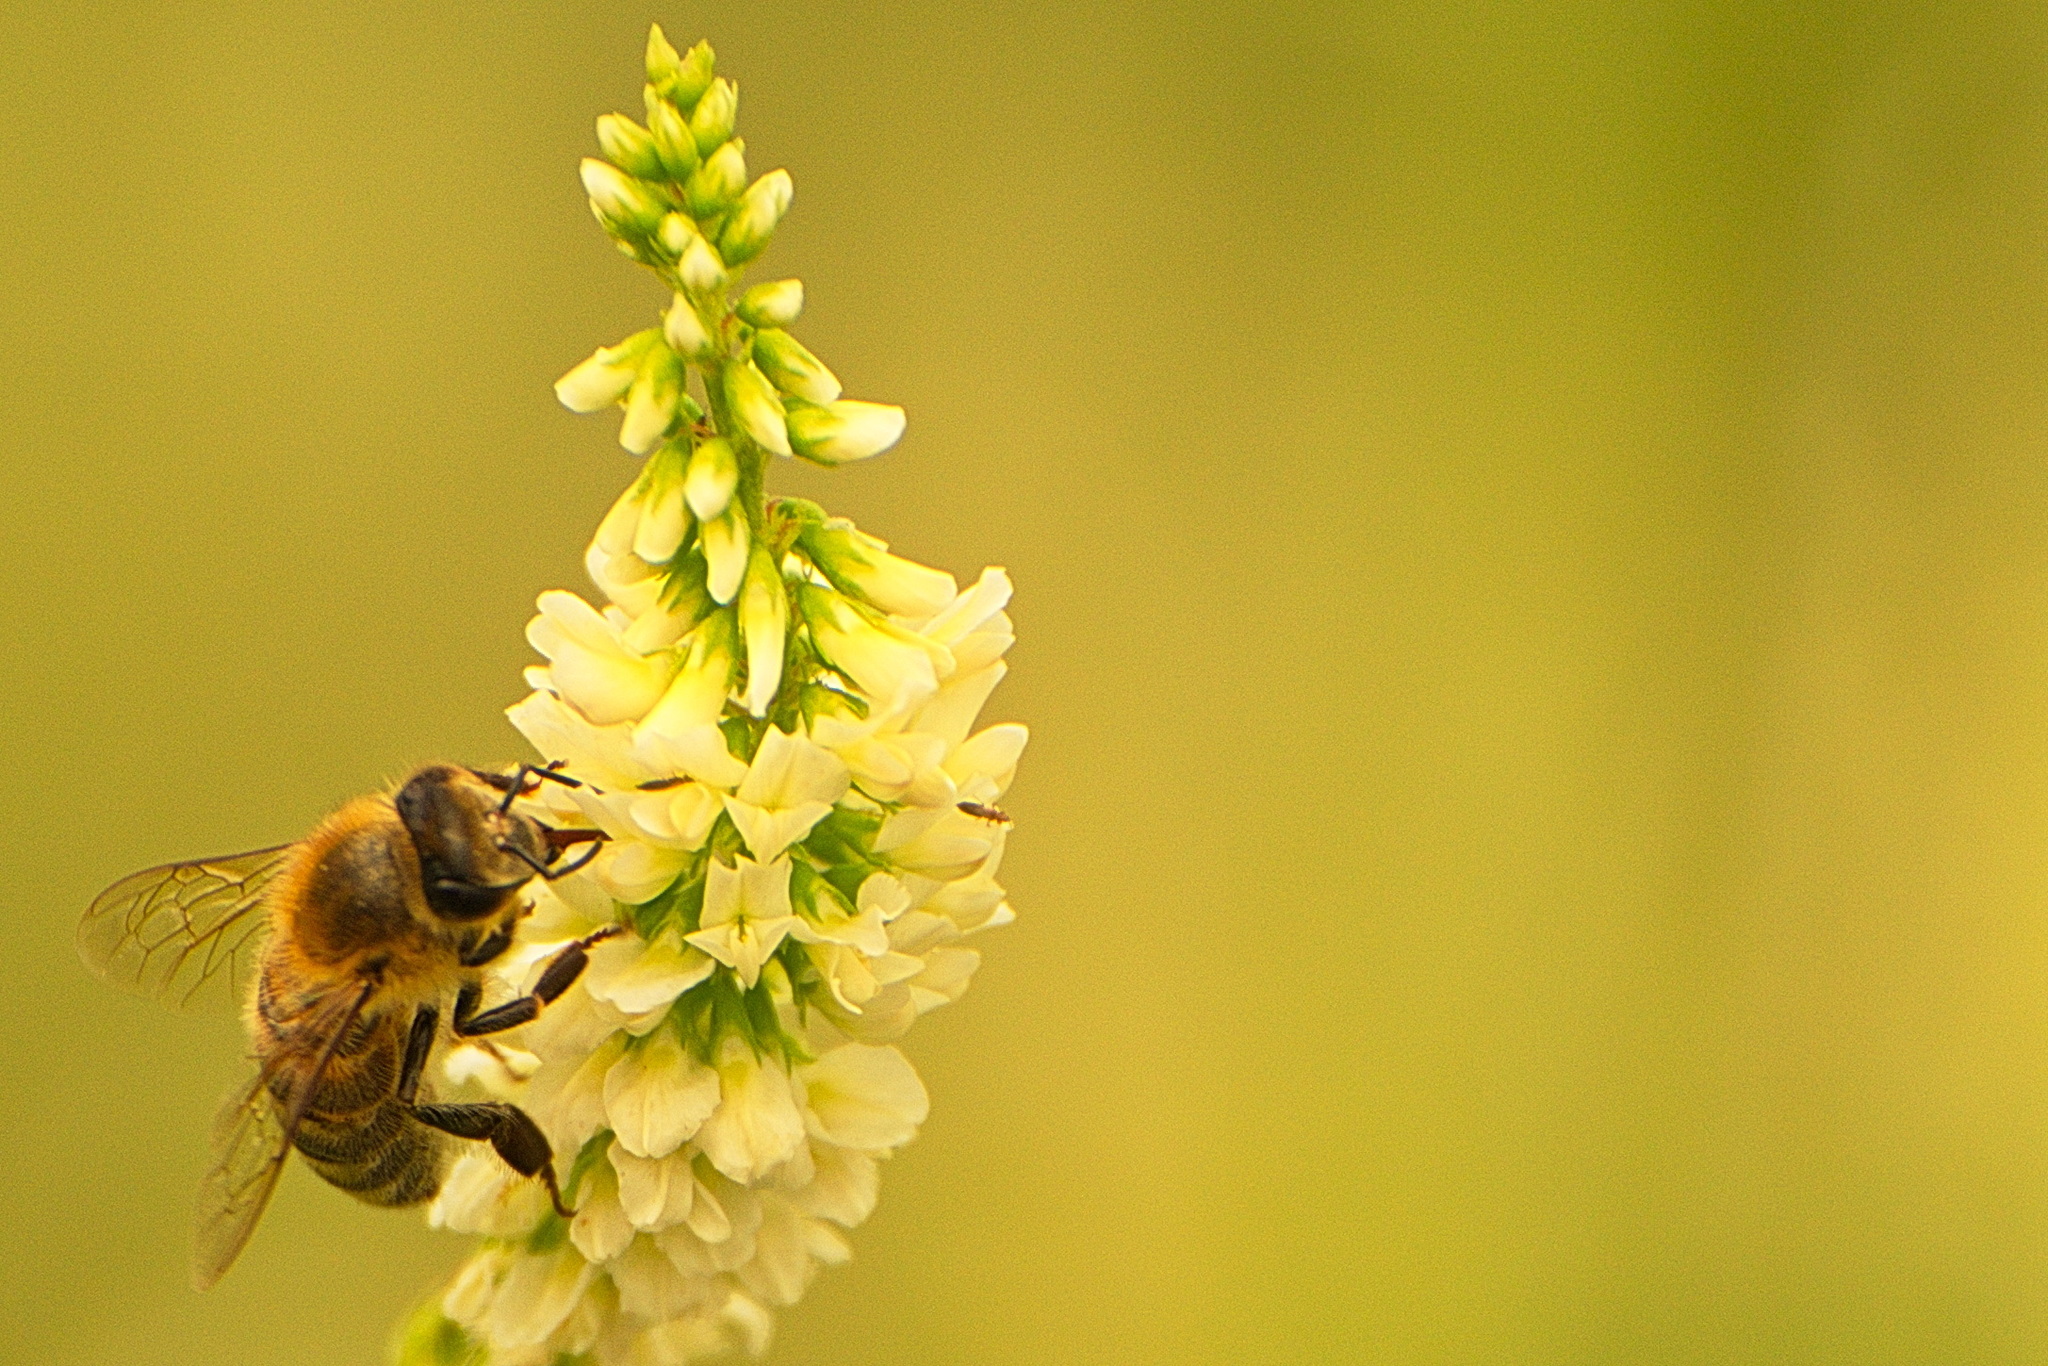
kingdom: Animalia
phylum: Arthropoda
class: Insecta
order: Hymenoptera
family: Apidae
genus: Apis
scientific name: Apis mellifera
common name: Honey bee
